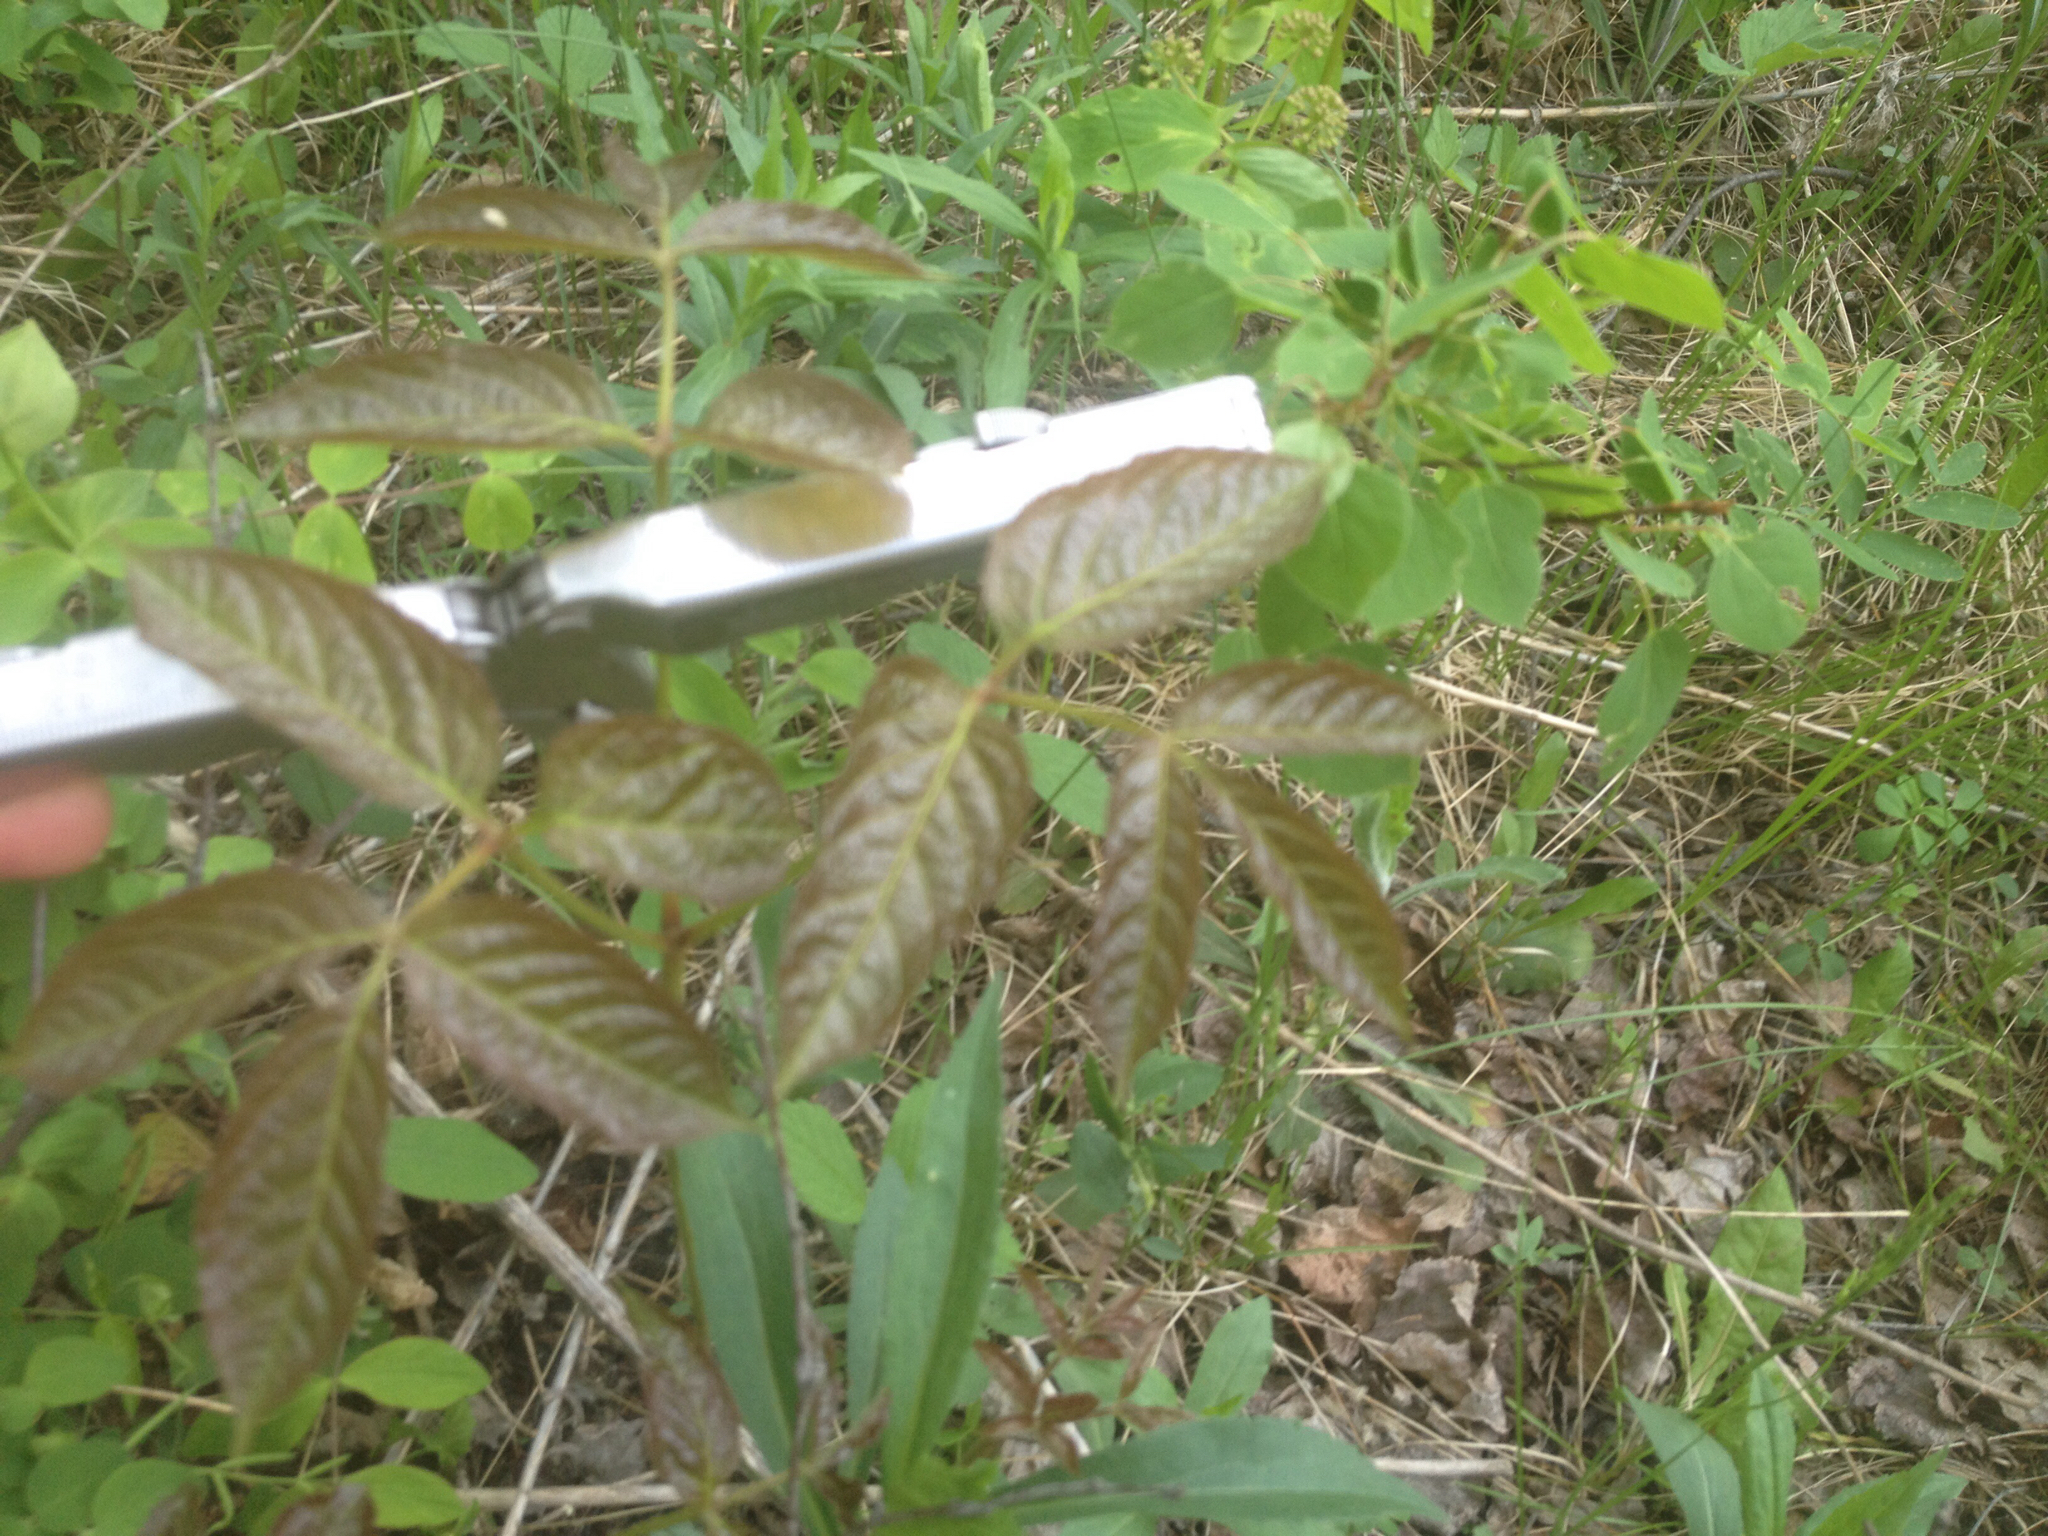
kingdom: Plantae
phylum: Tracheophyta
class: Magnoliopsida
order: Apiales
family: Araliaceae
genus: Aralia
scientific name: Aralia nudicaulis
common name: Wild sarsaparilla
